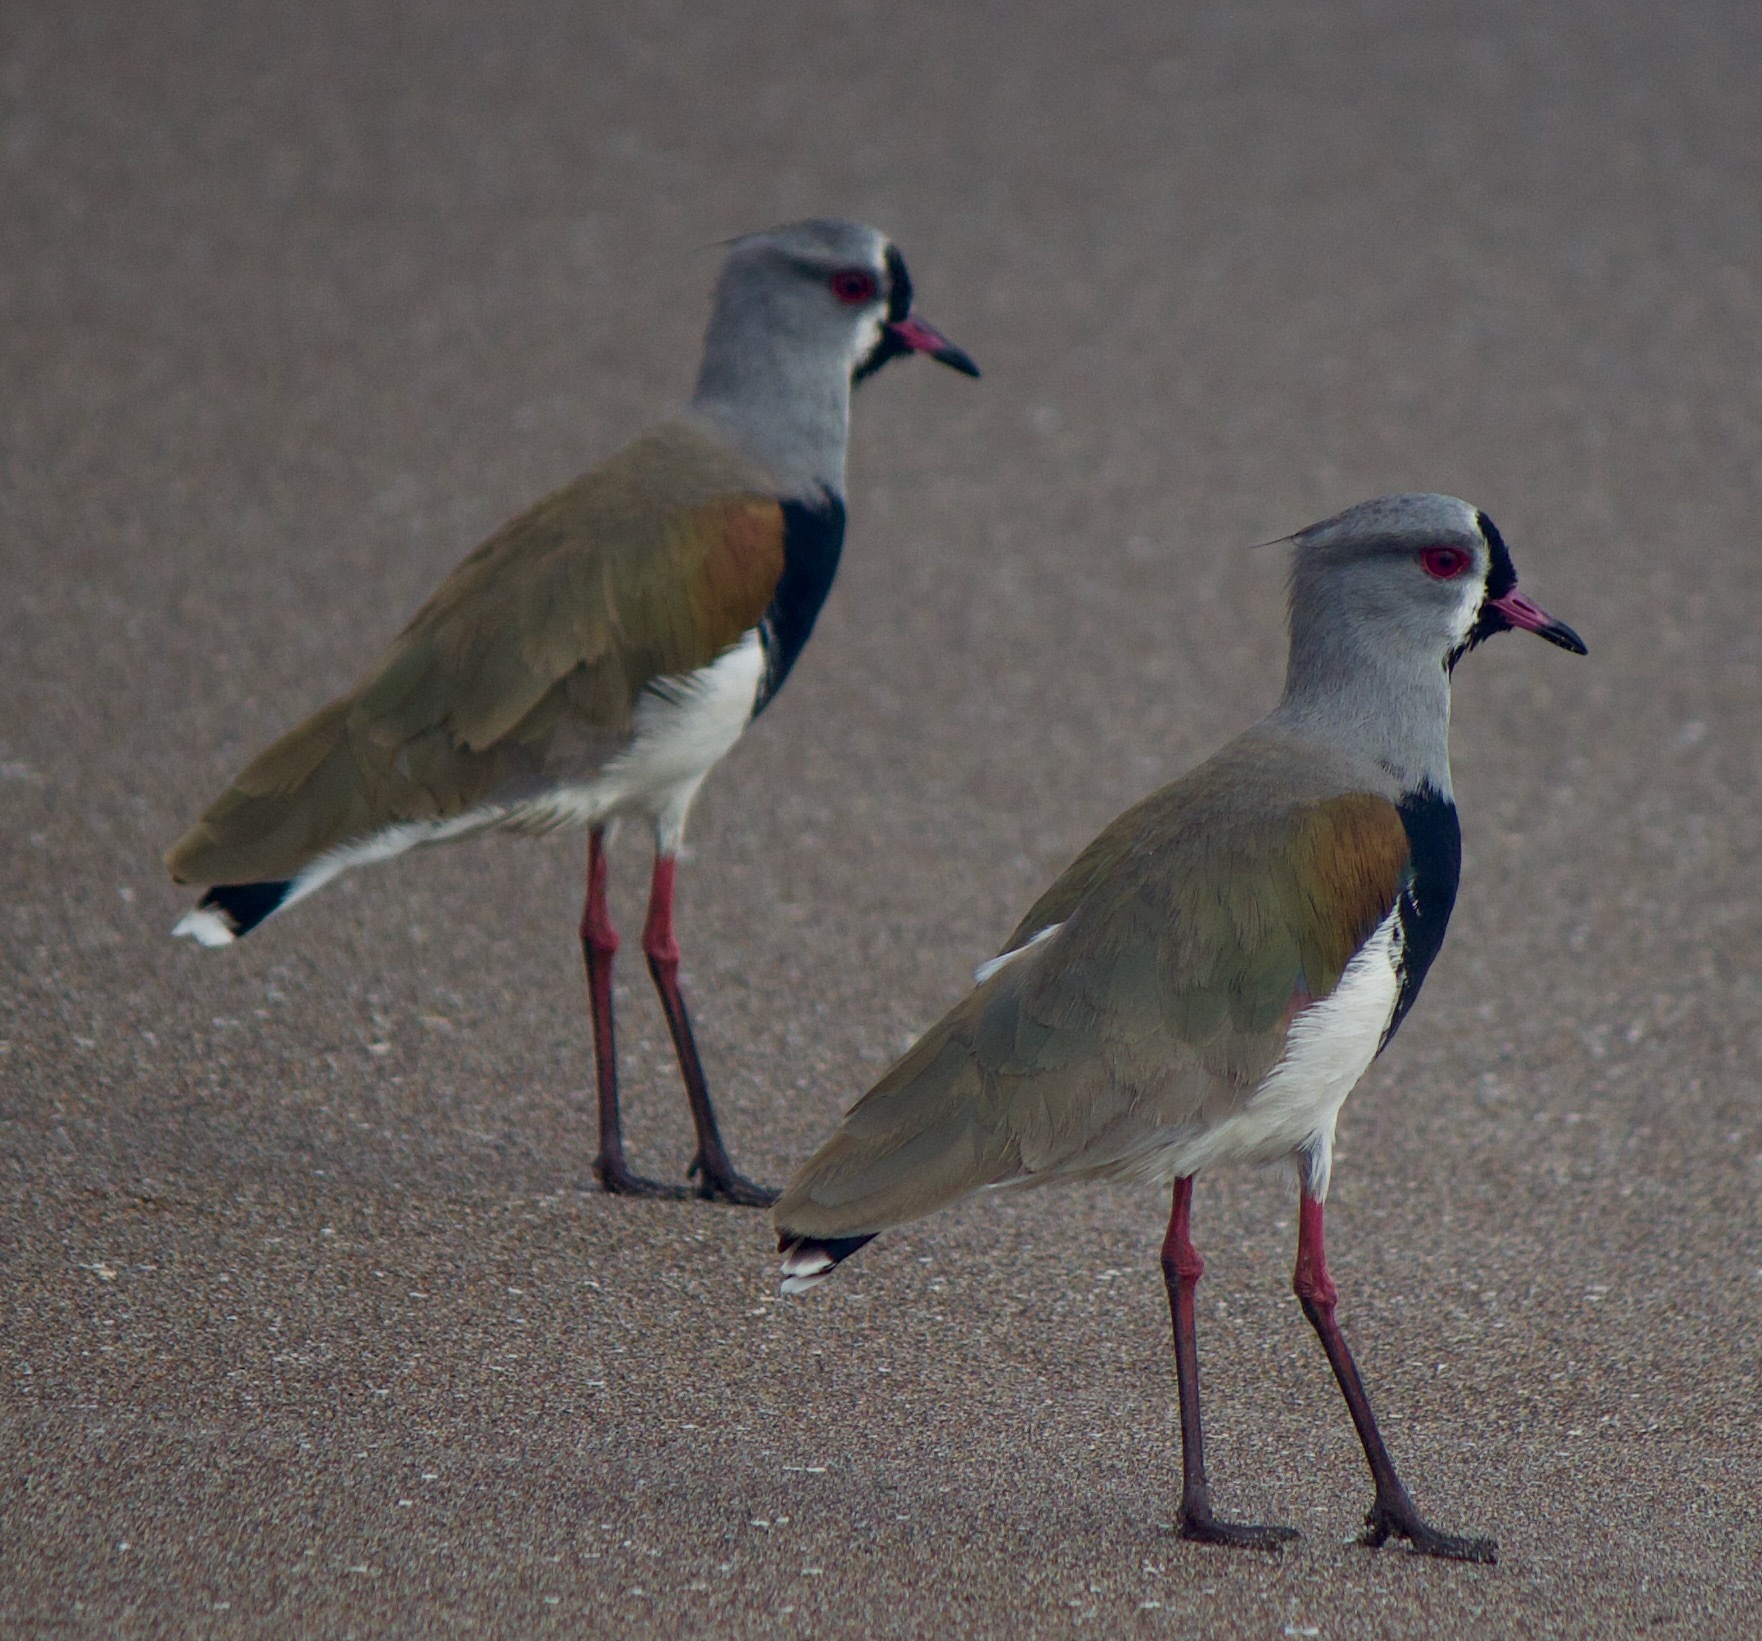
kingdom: Animalia
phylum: Chordata
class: Aves
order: Charadriiformes
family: Charadriidae
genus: Vanellus
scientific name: Vanellus chilensis
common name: Southern lapwing
